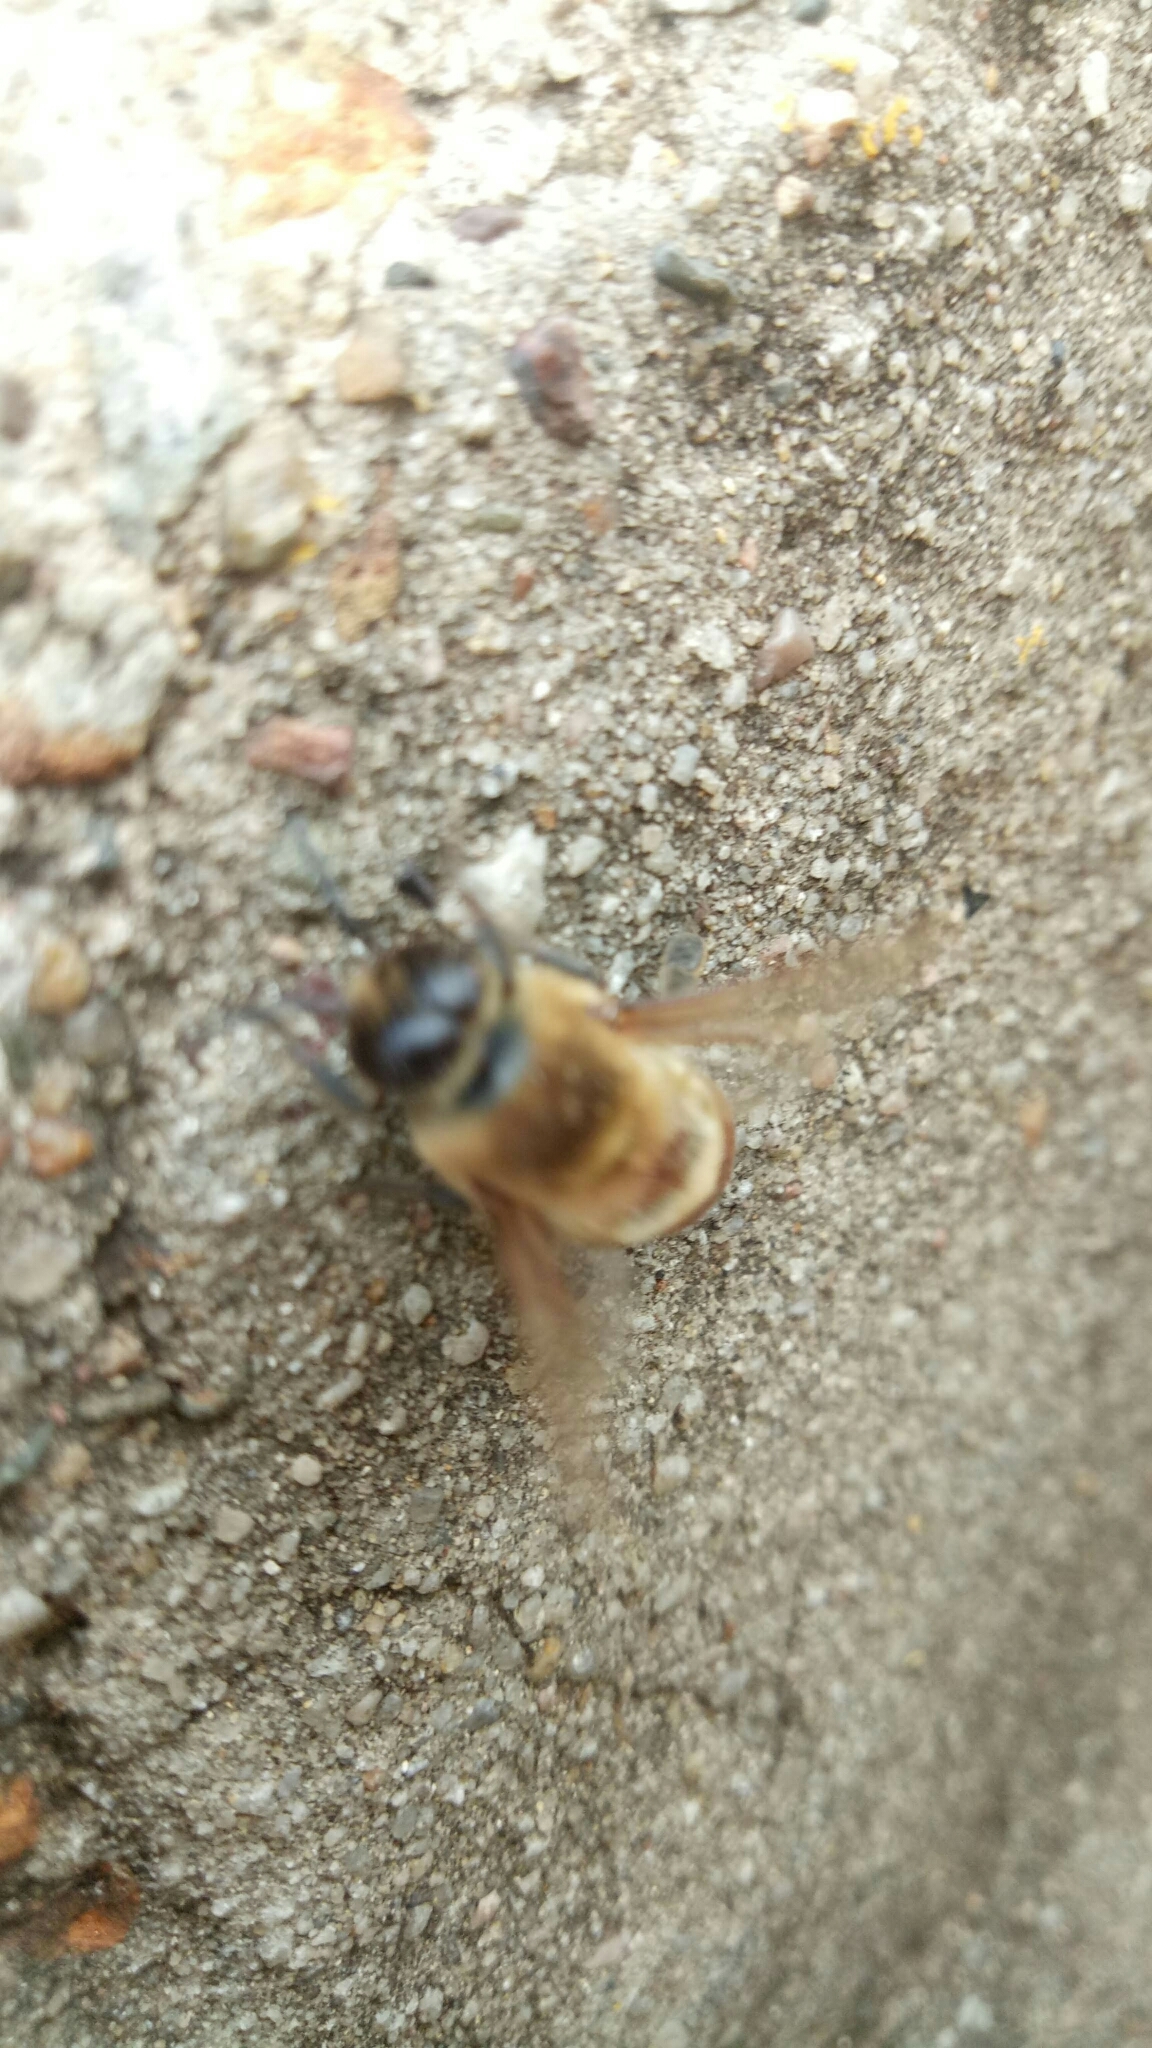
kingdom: Animalia
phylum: Arthropoda
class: Insecta
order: Hymenoptera
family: Apidae
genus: Apis
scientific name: Apis mellifera
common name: Honey bee
